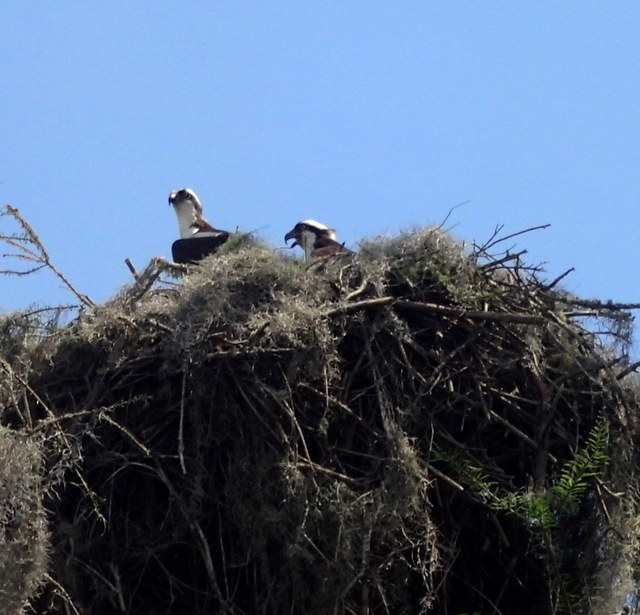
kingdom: Animalia
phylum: Chordata
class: Aves
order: Accipitriformes
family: Pandionidae
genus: Pandion
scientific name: Pandion haliaetus
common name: Osprey
